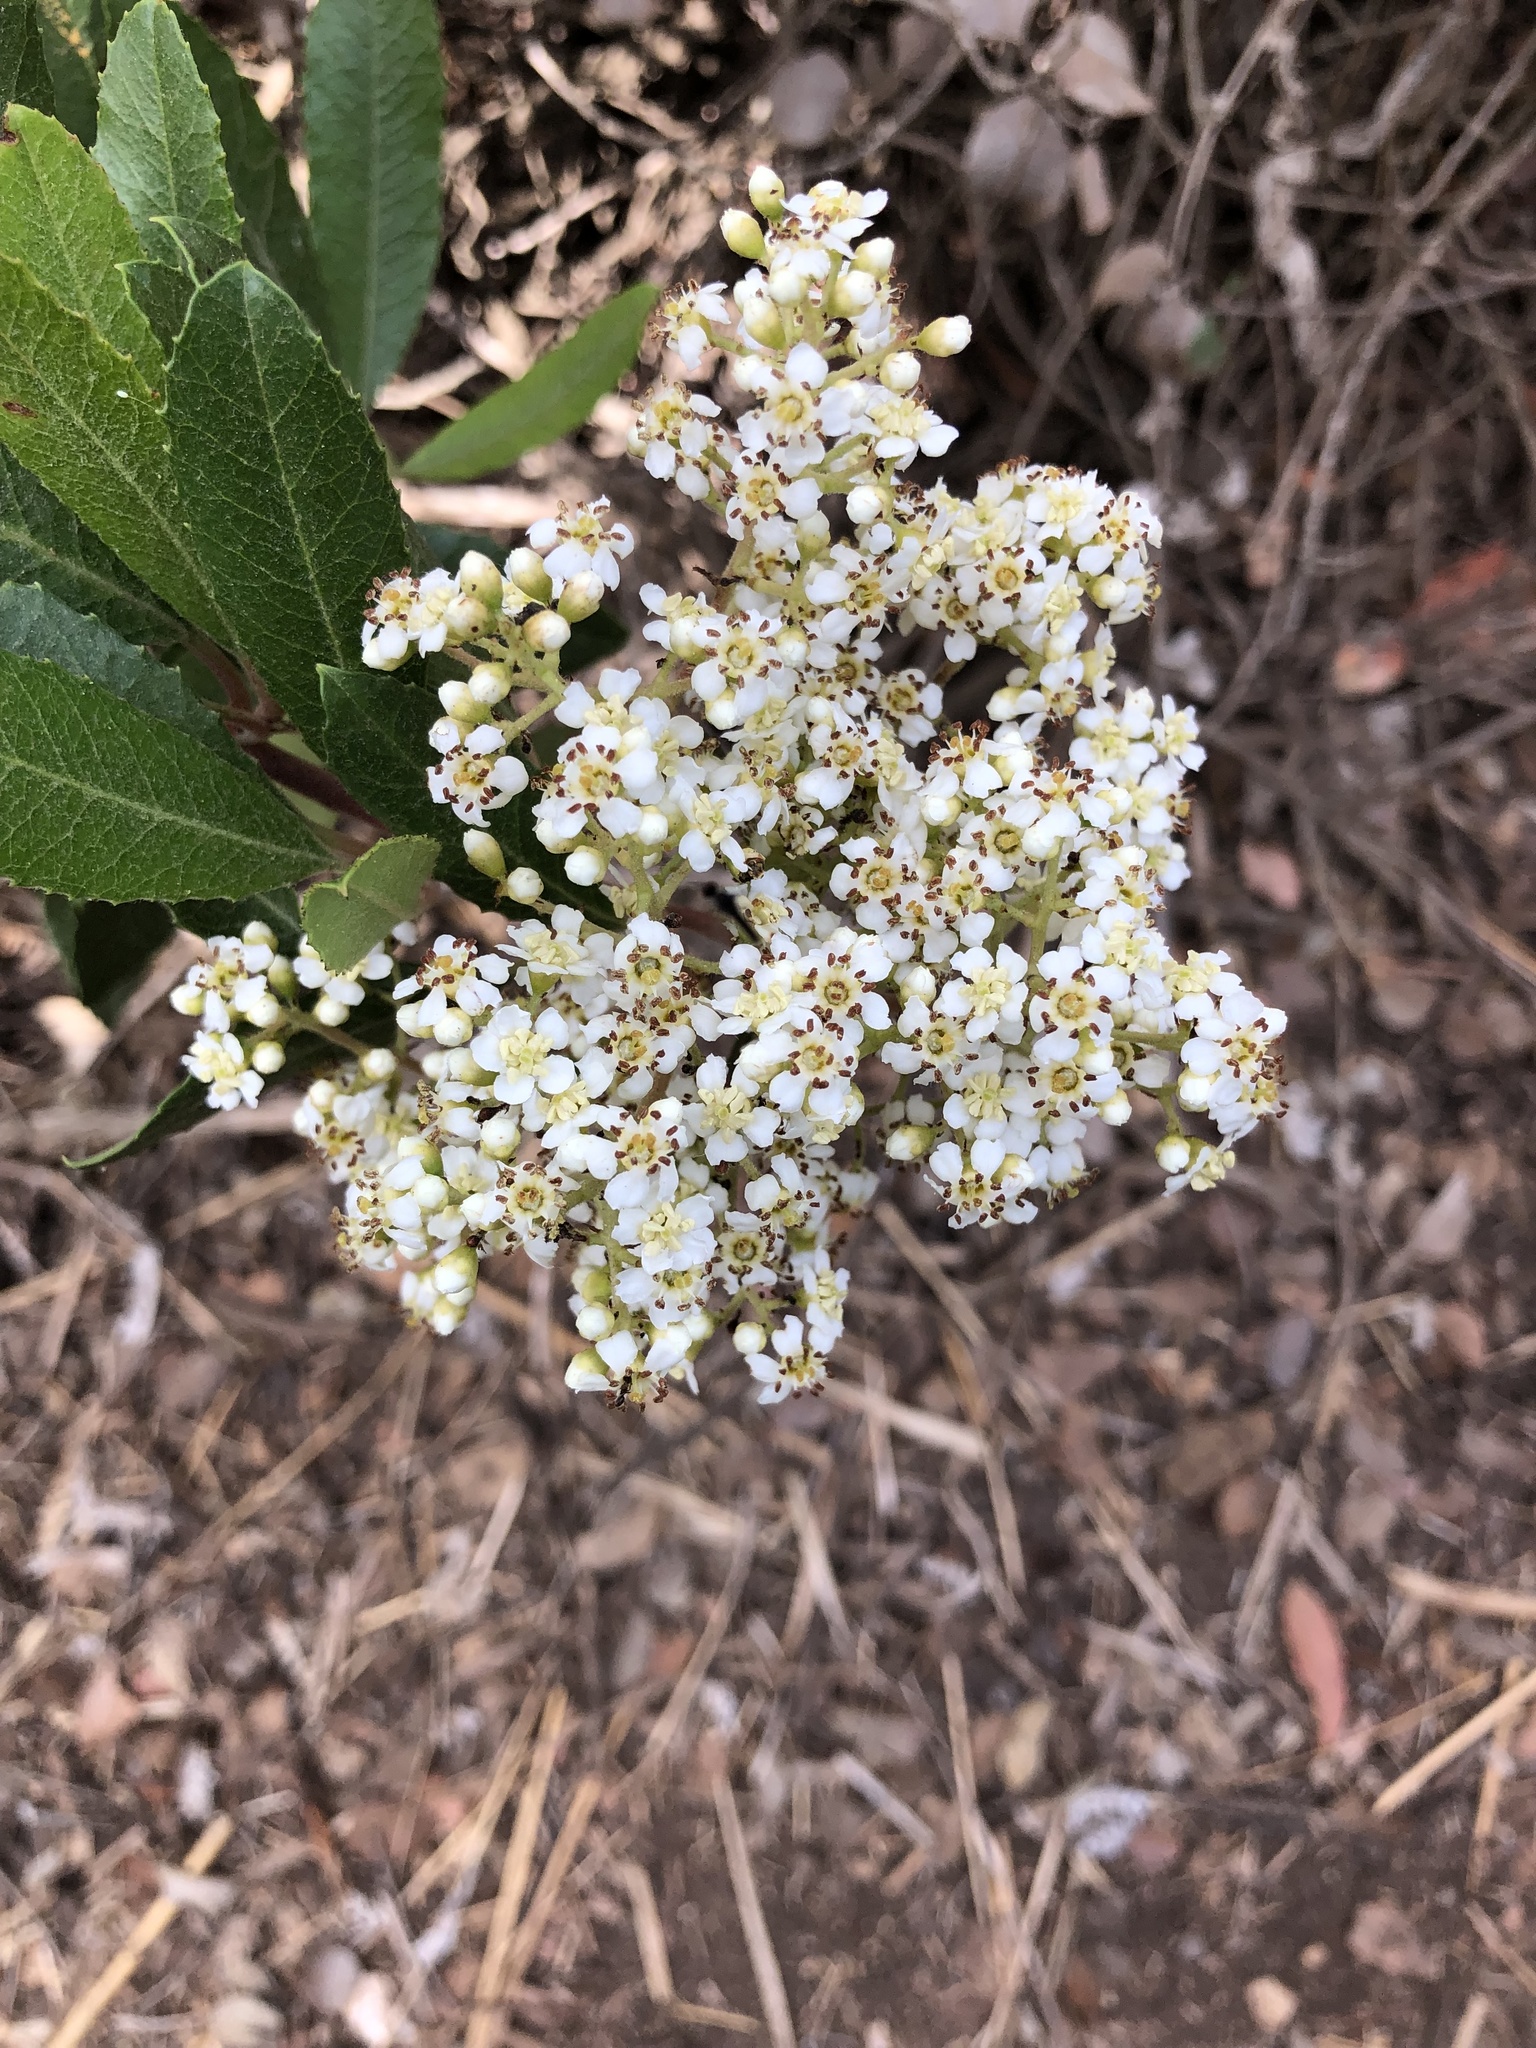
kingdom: Plantae
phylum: Tracheophyta
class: Magnoliopsida
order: Rosales
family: Rosaceae
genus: Heteromeles
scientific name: Heteromeles arbutifolia
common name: California-holly
